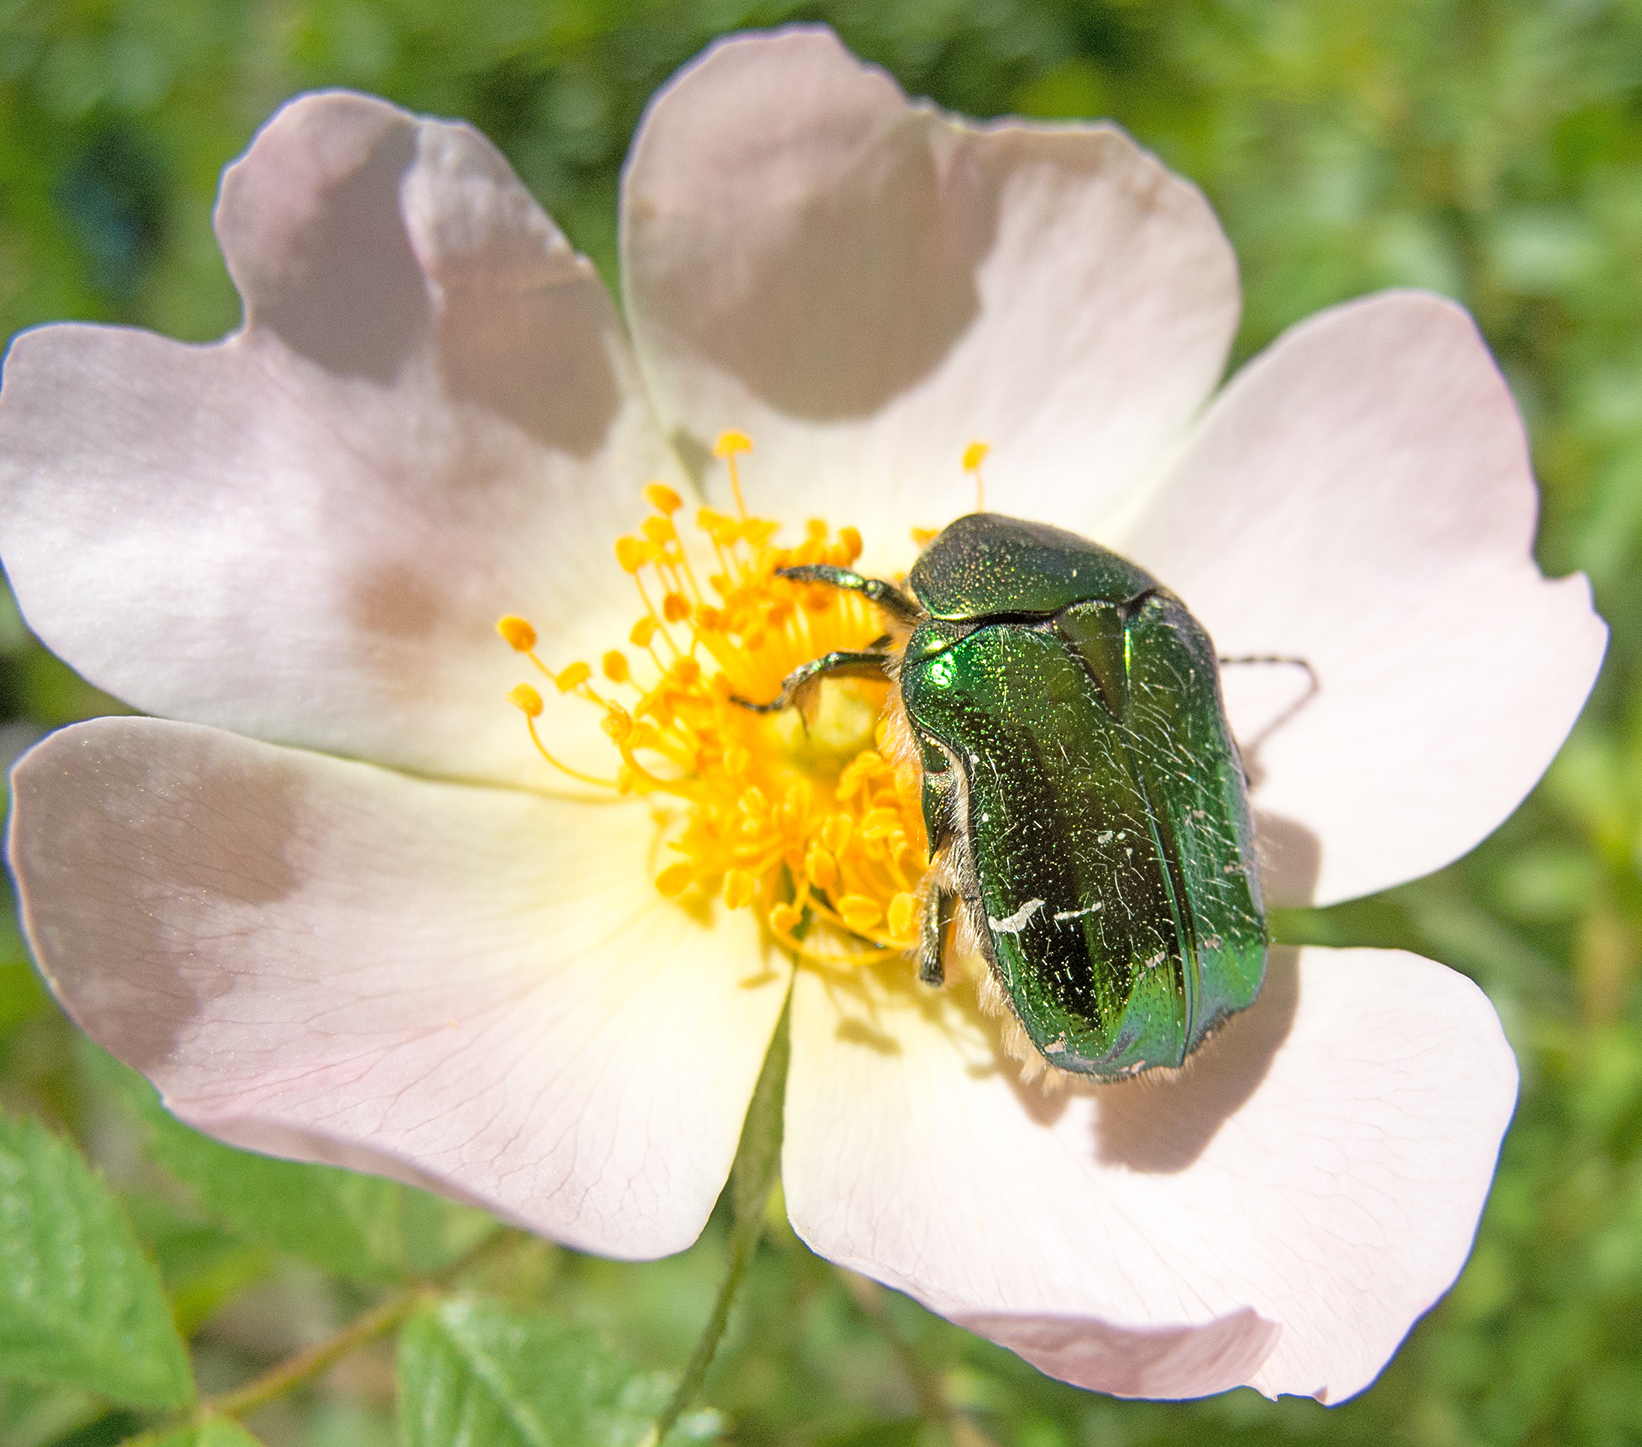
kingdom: Animalia
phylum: Arthropoda
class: Insecta
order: Coleoptera
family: Scarabaeidae
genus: Cetonia
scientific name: Cetonia aurata
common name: Rose chafer
